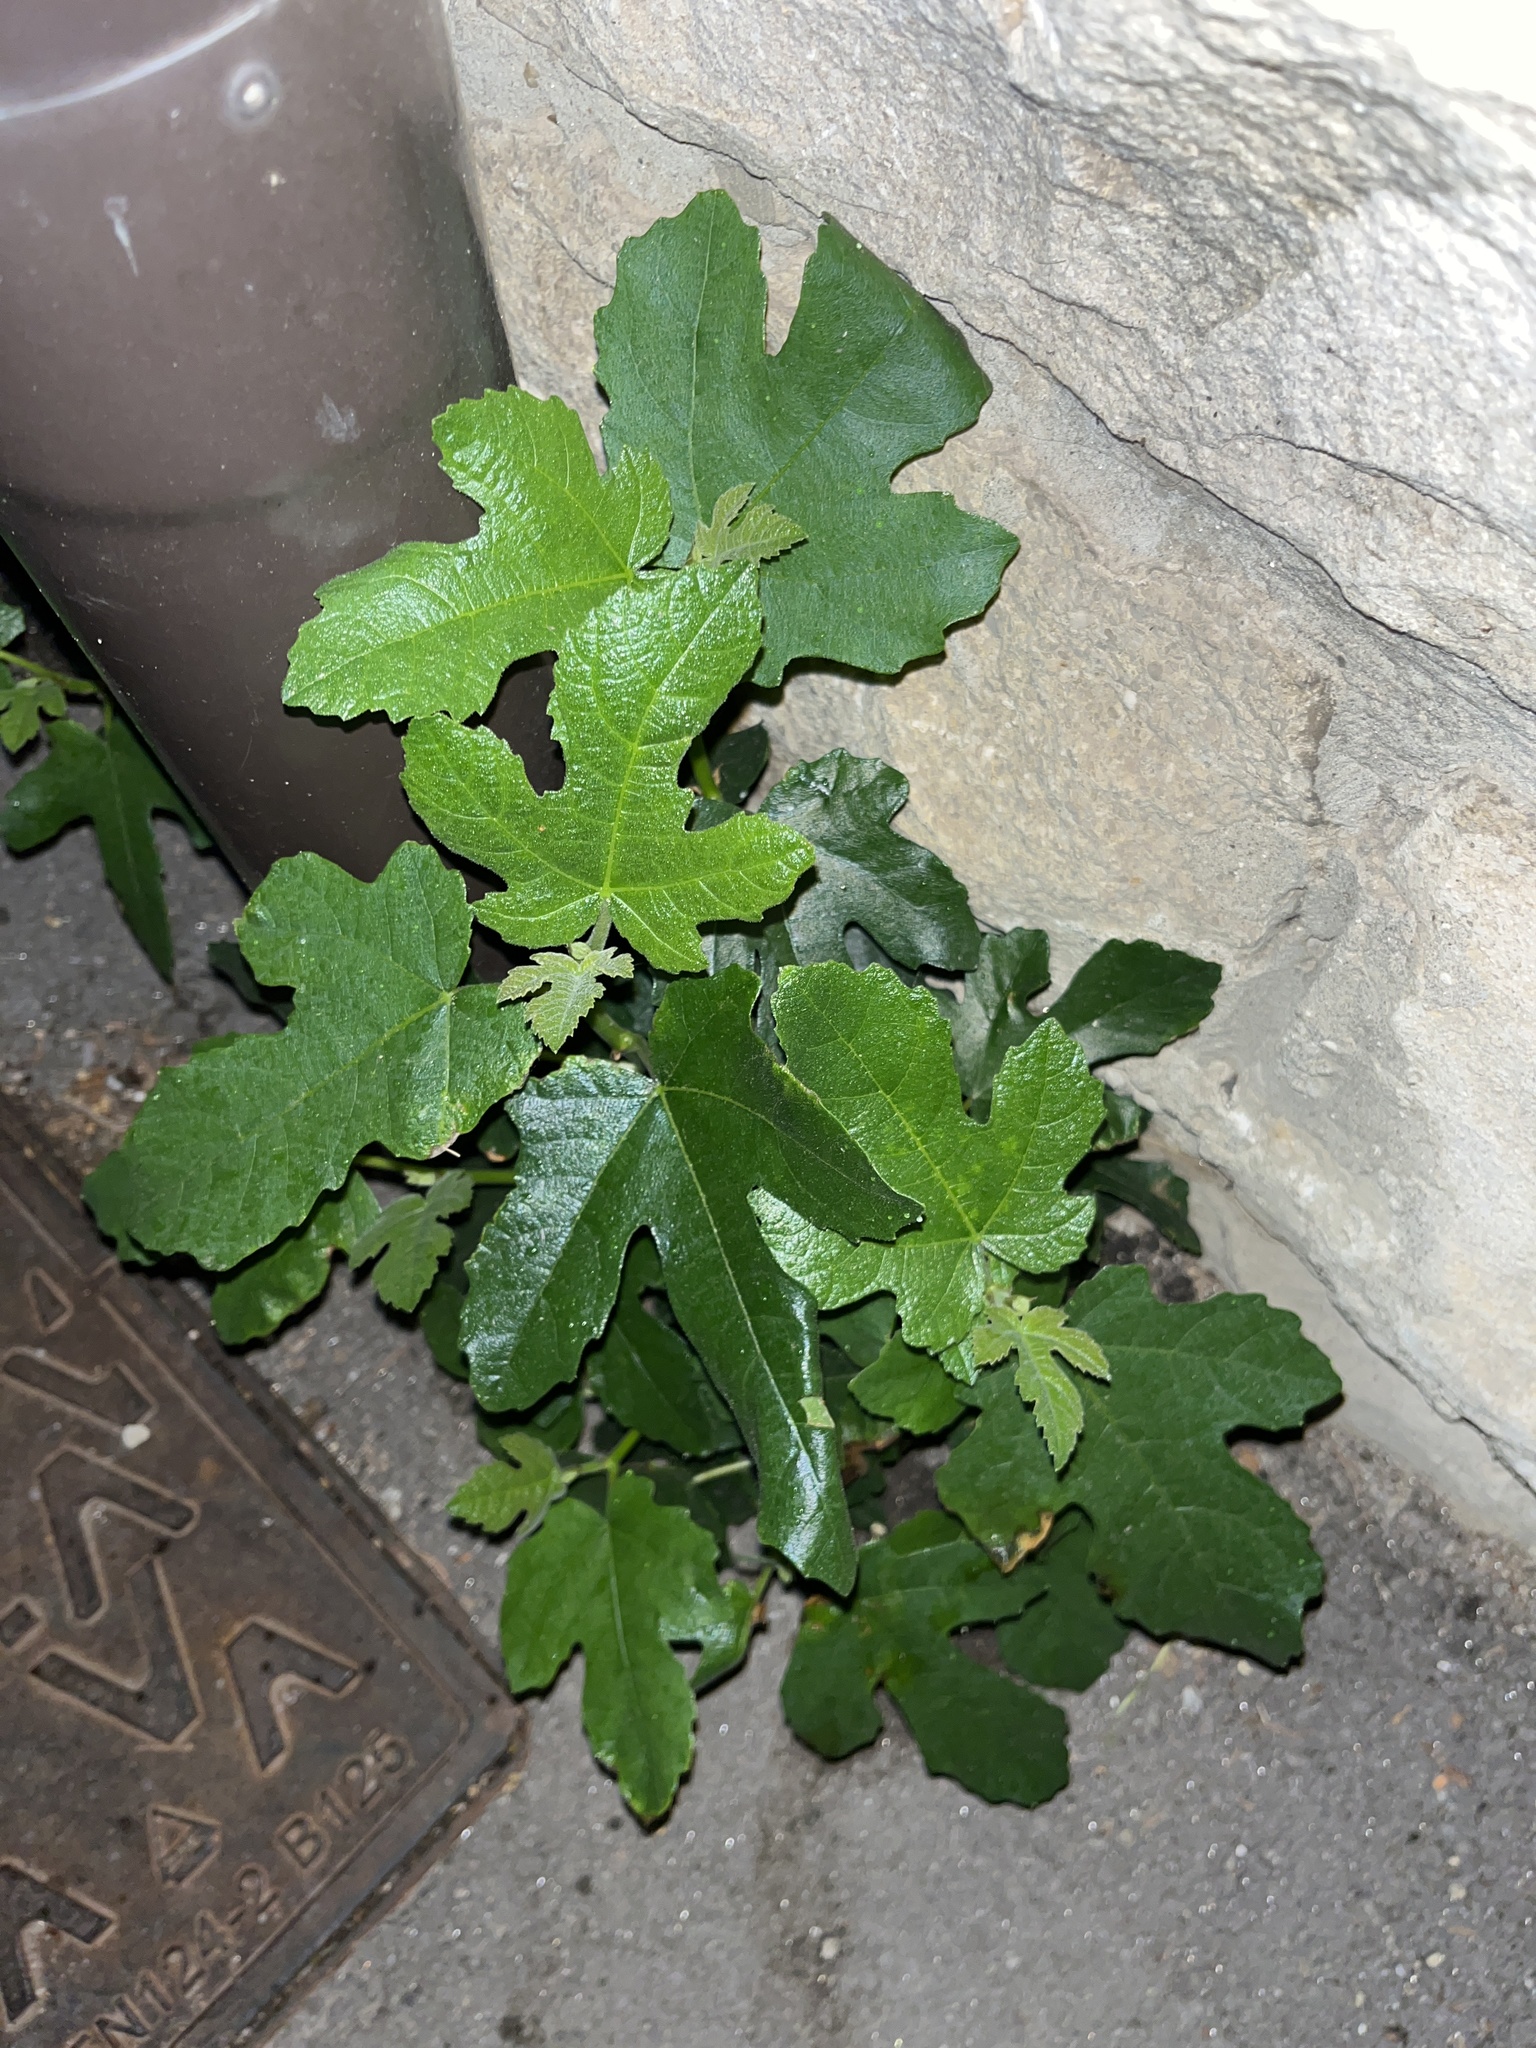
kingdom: Plantae
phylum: Tracheophyta
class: Magnoliopsida
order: Rosales
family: Moraceae
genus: Ficus
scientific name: Ficus carica
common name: Fig
